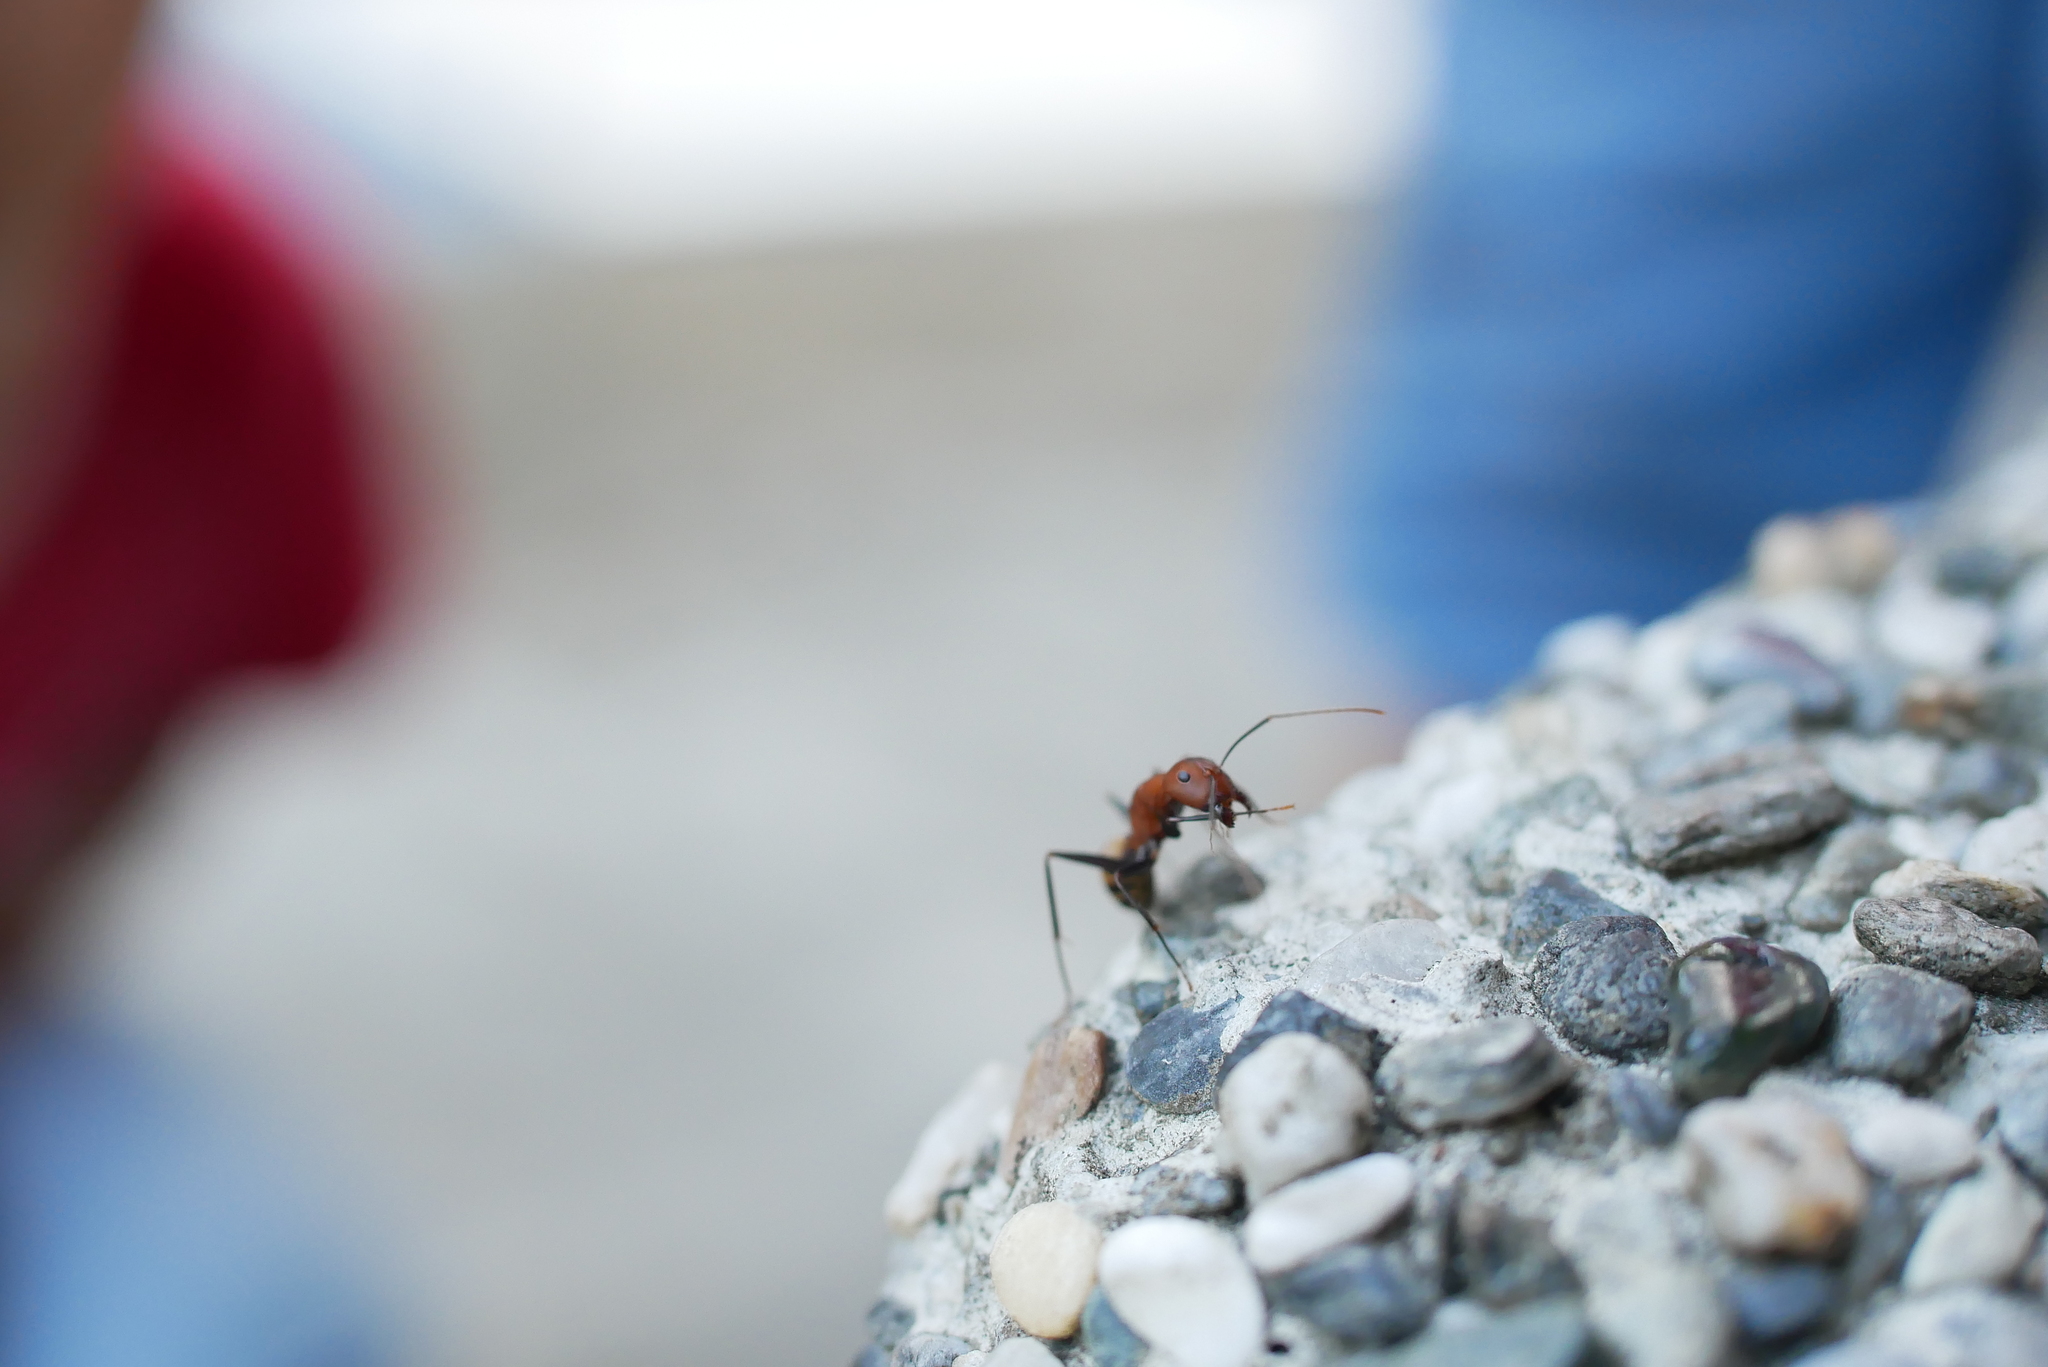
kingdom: Animalia
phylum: Arthropoda
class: Insecta
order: Hymenoptera
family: Formicidae
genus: Camponotus
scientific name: Camponotus habereri
